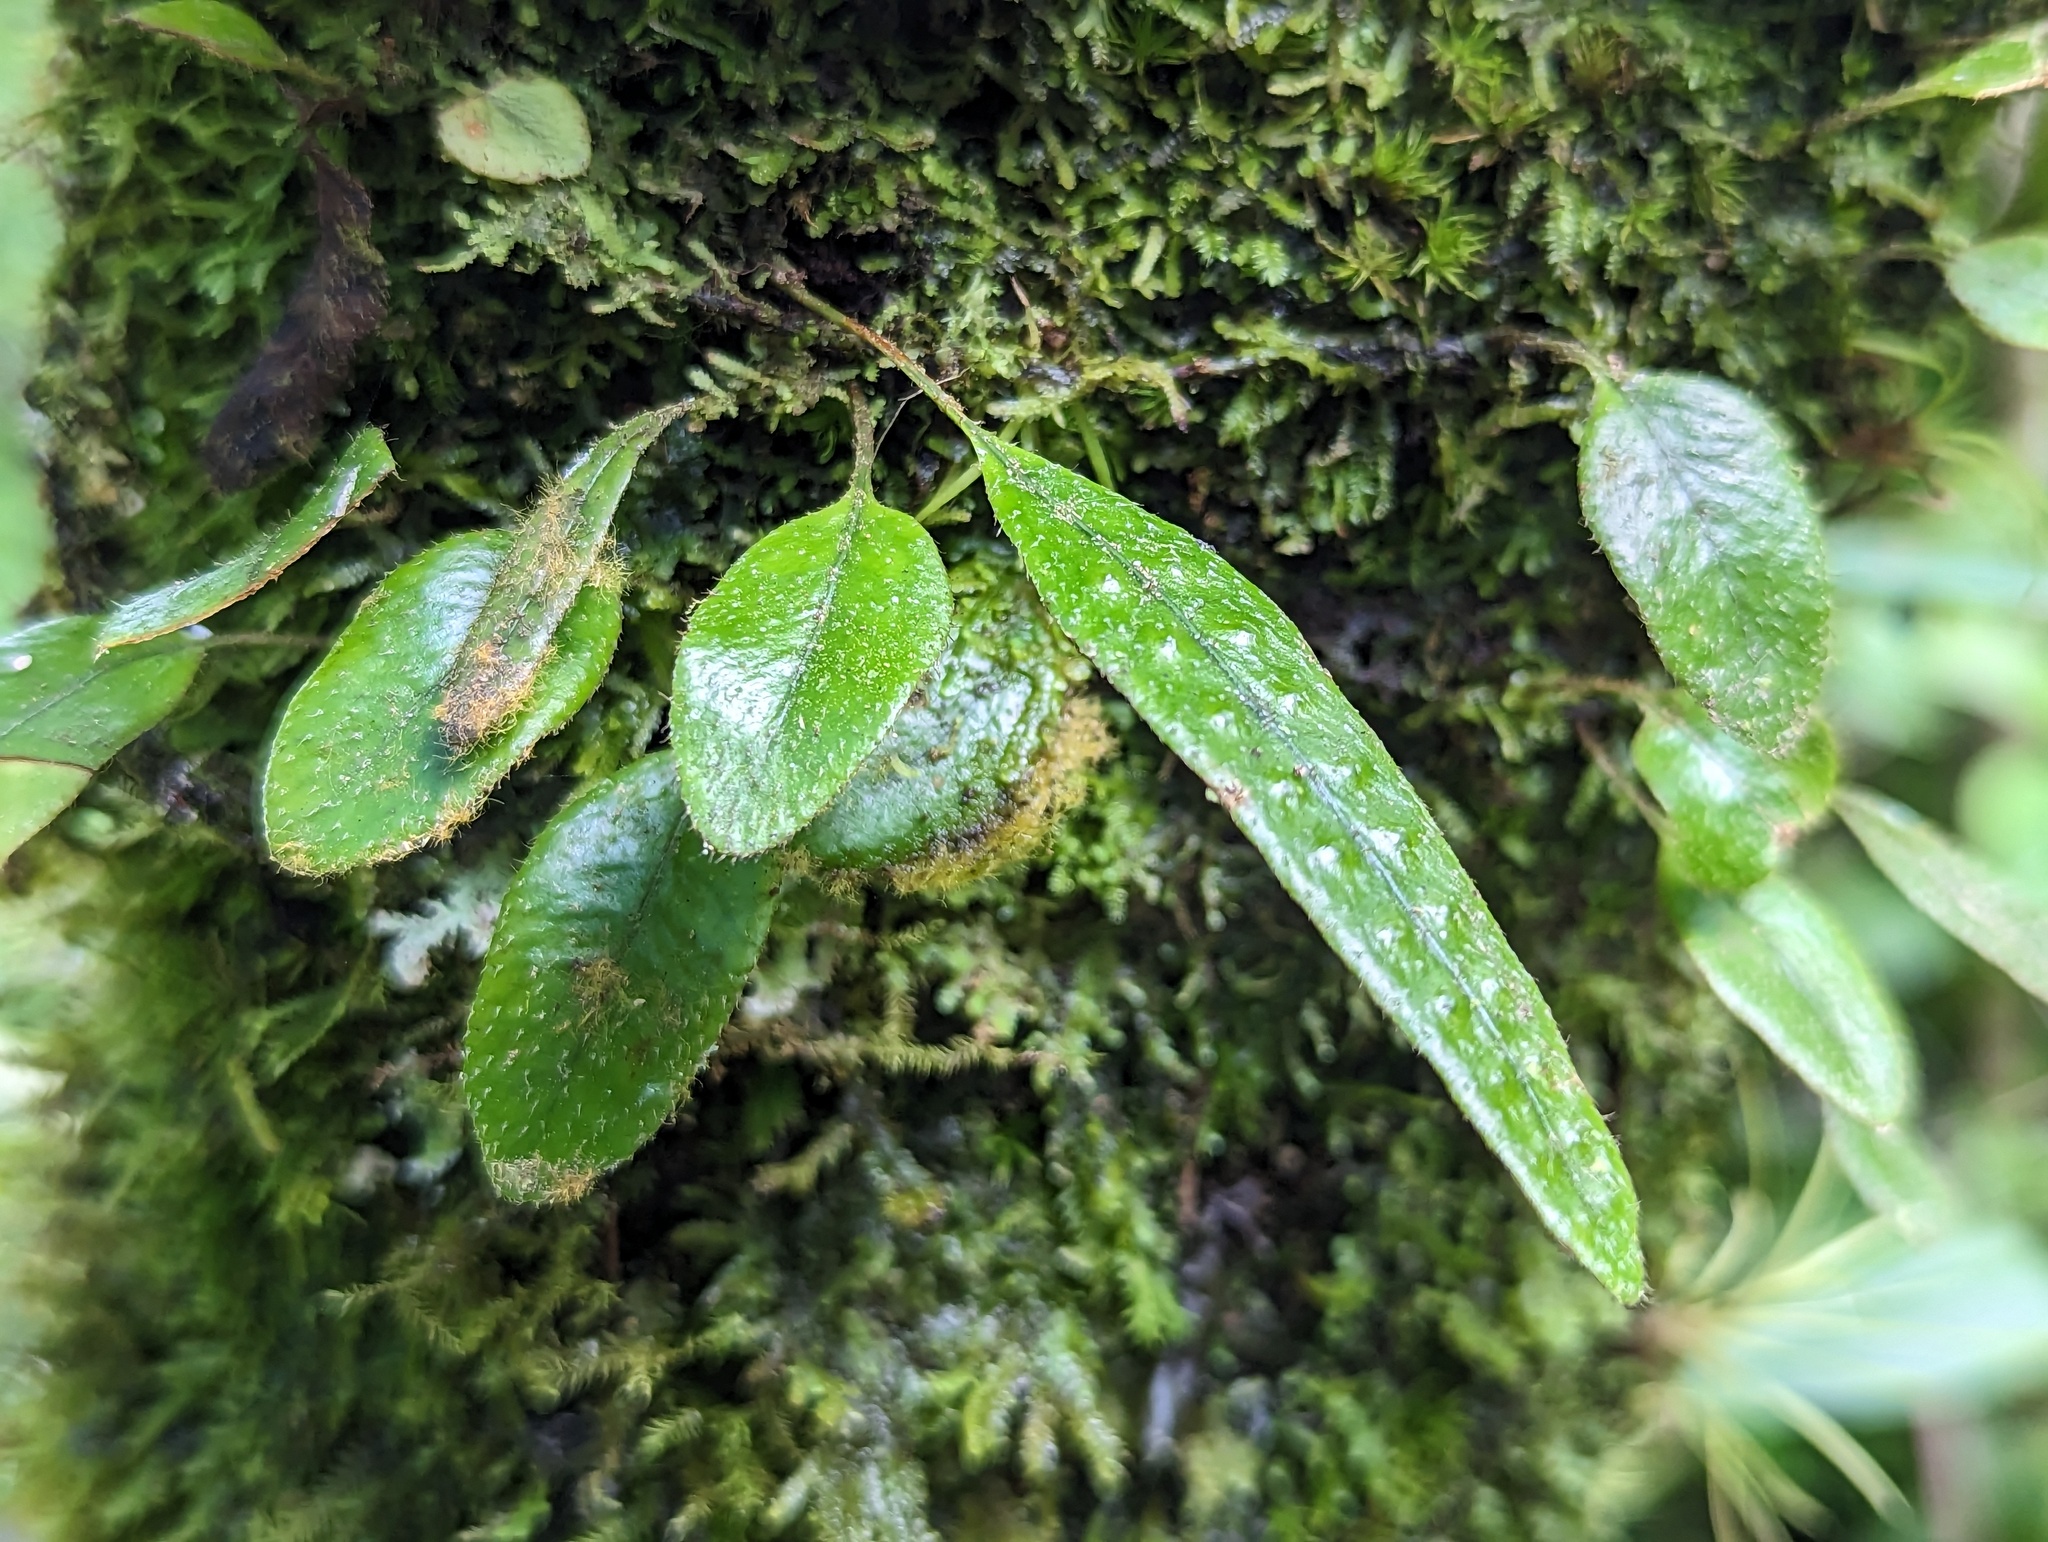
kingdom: Plantae
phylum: Tracheophyta
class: Polypodiopsida
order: Polypodiales
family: Polypodiaceae
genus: Microgramma
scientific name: Microgramma piloselloides
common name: Hairy snakefern
